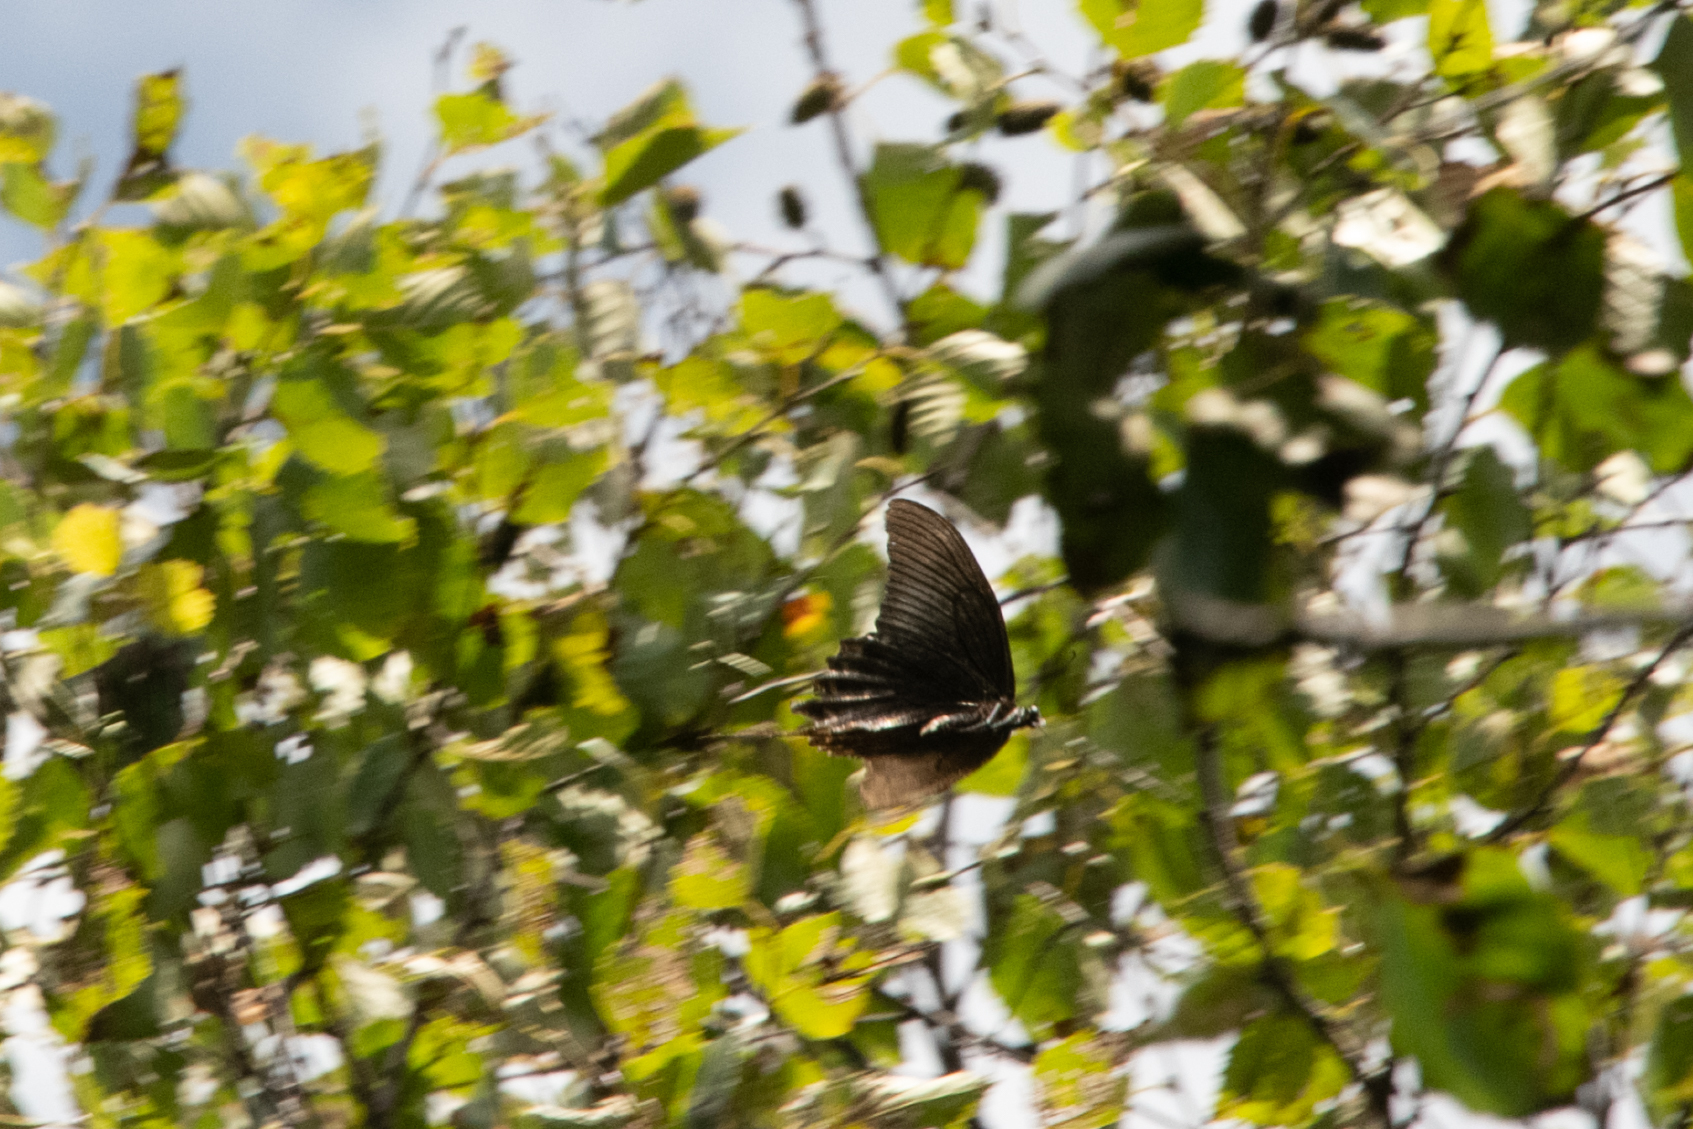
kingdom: Animalia
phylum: Arthropoda
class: Insecta
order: Lepidoptera
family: Papilionidae
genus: Papilio
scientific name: Papilio maackii
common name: Alpine black swallowtail
